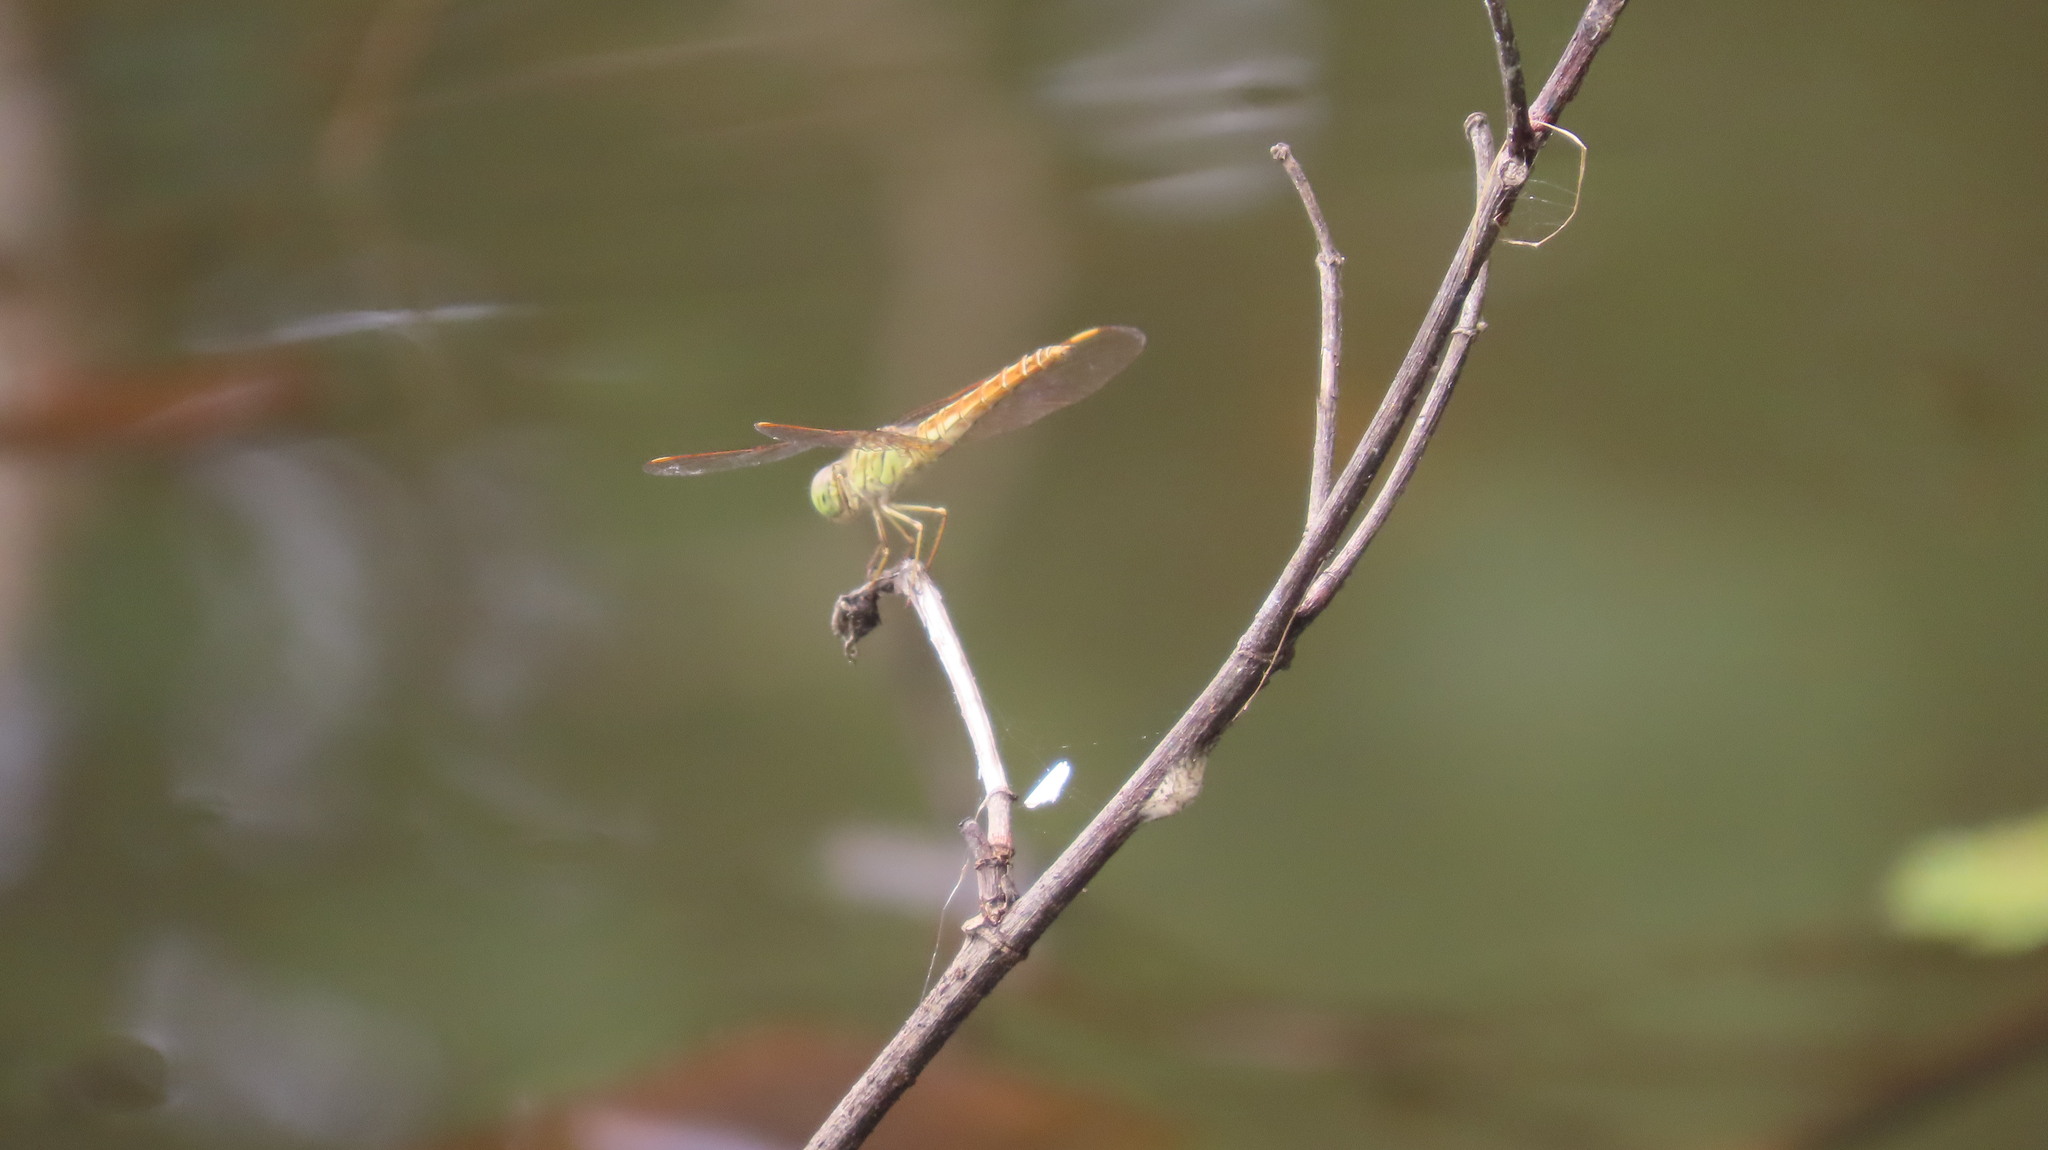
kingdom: Animalia
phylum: Arthropoda
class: Insecta
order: Odonata
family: Libellulidae
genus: Brachythemis
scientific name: Brachythemis contaminata
